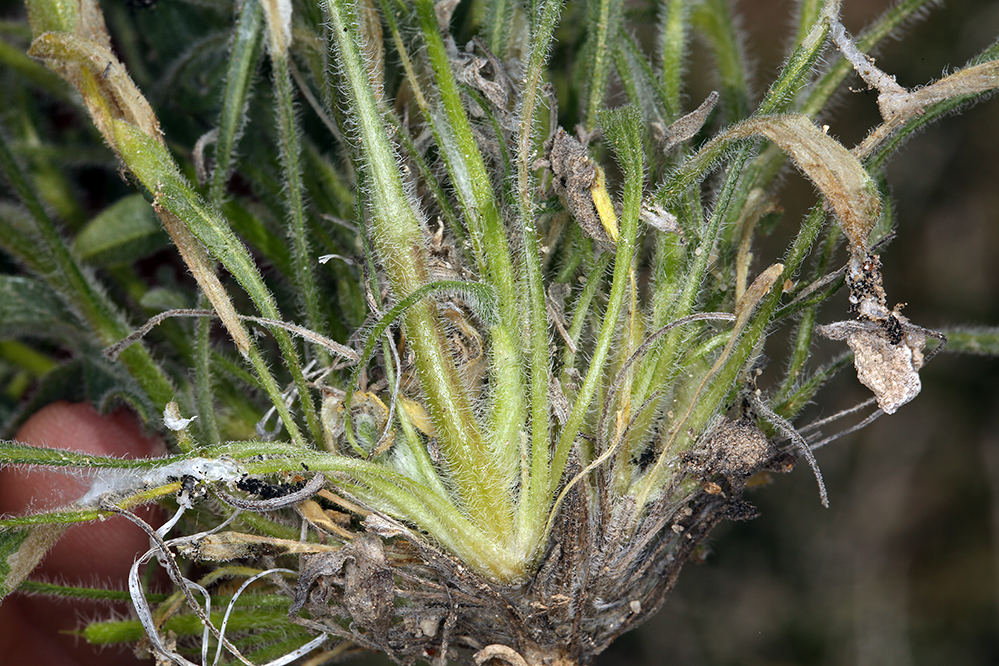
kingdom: Plantae
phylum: Tracheophyta
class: Magnoliopsida
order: Asterales
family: Asteraceae
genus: Erigeron
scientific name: Erigeron aphanactis
